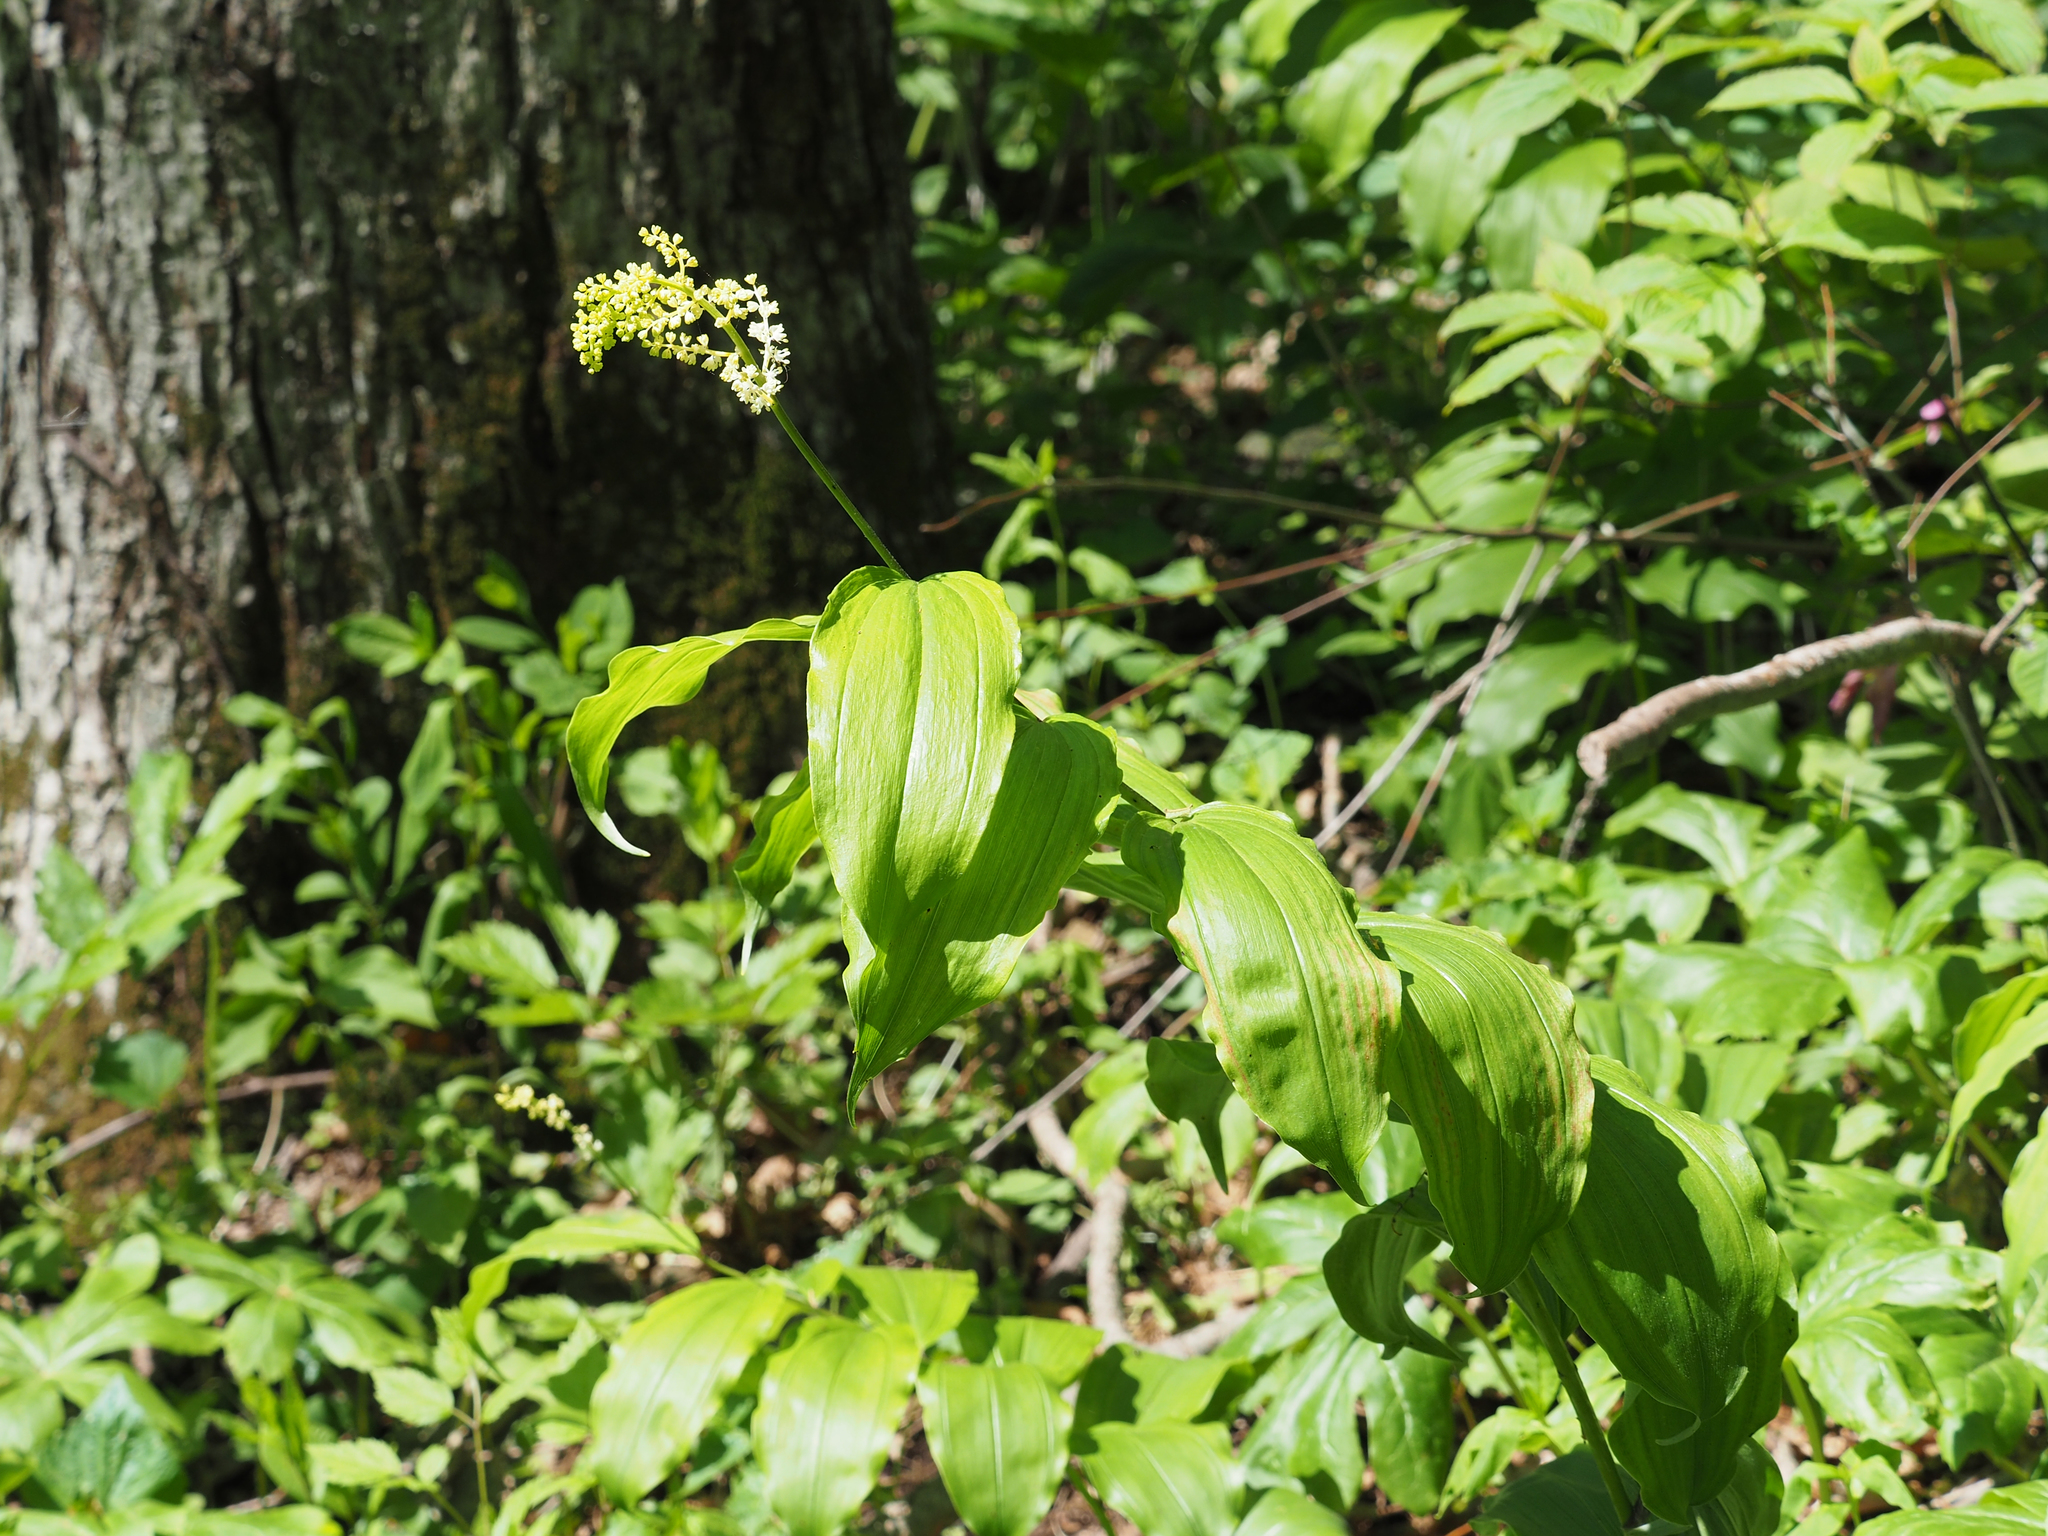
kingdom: Plantae
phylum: Tracheophyta
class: Liliopsida
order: Asparagales
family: Asparagaceae
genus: Maianthemum
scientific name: Maianthemum racemosum
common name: False spikenard
